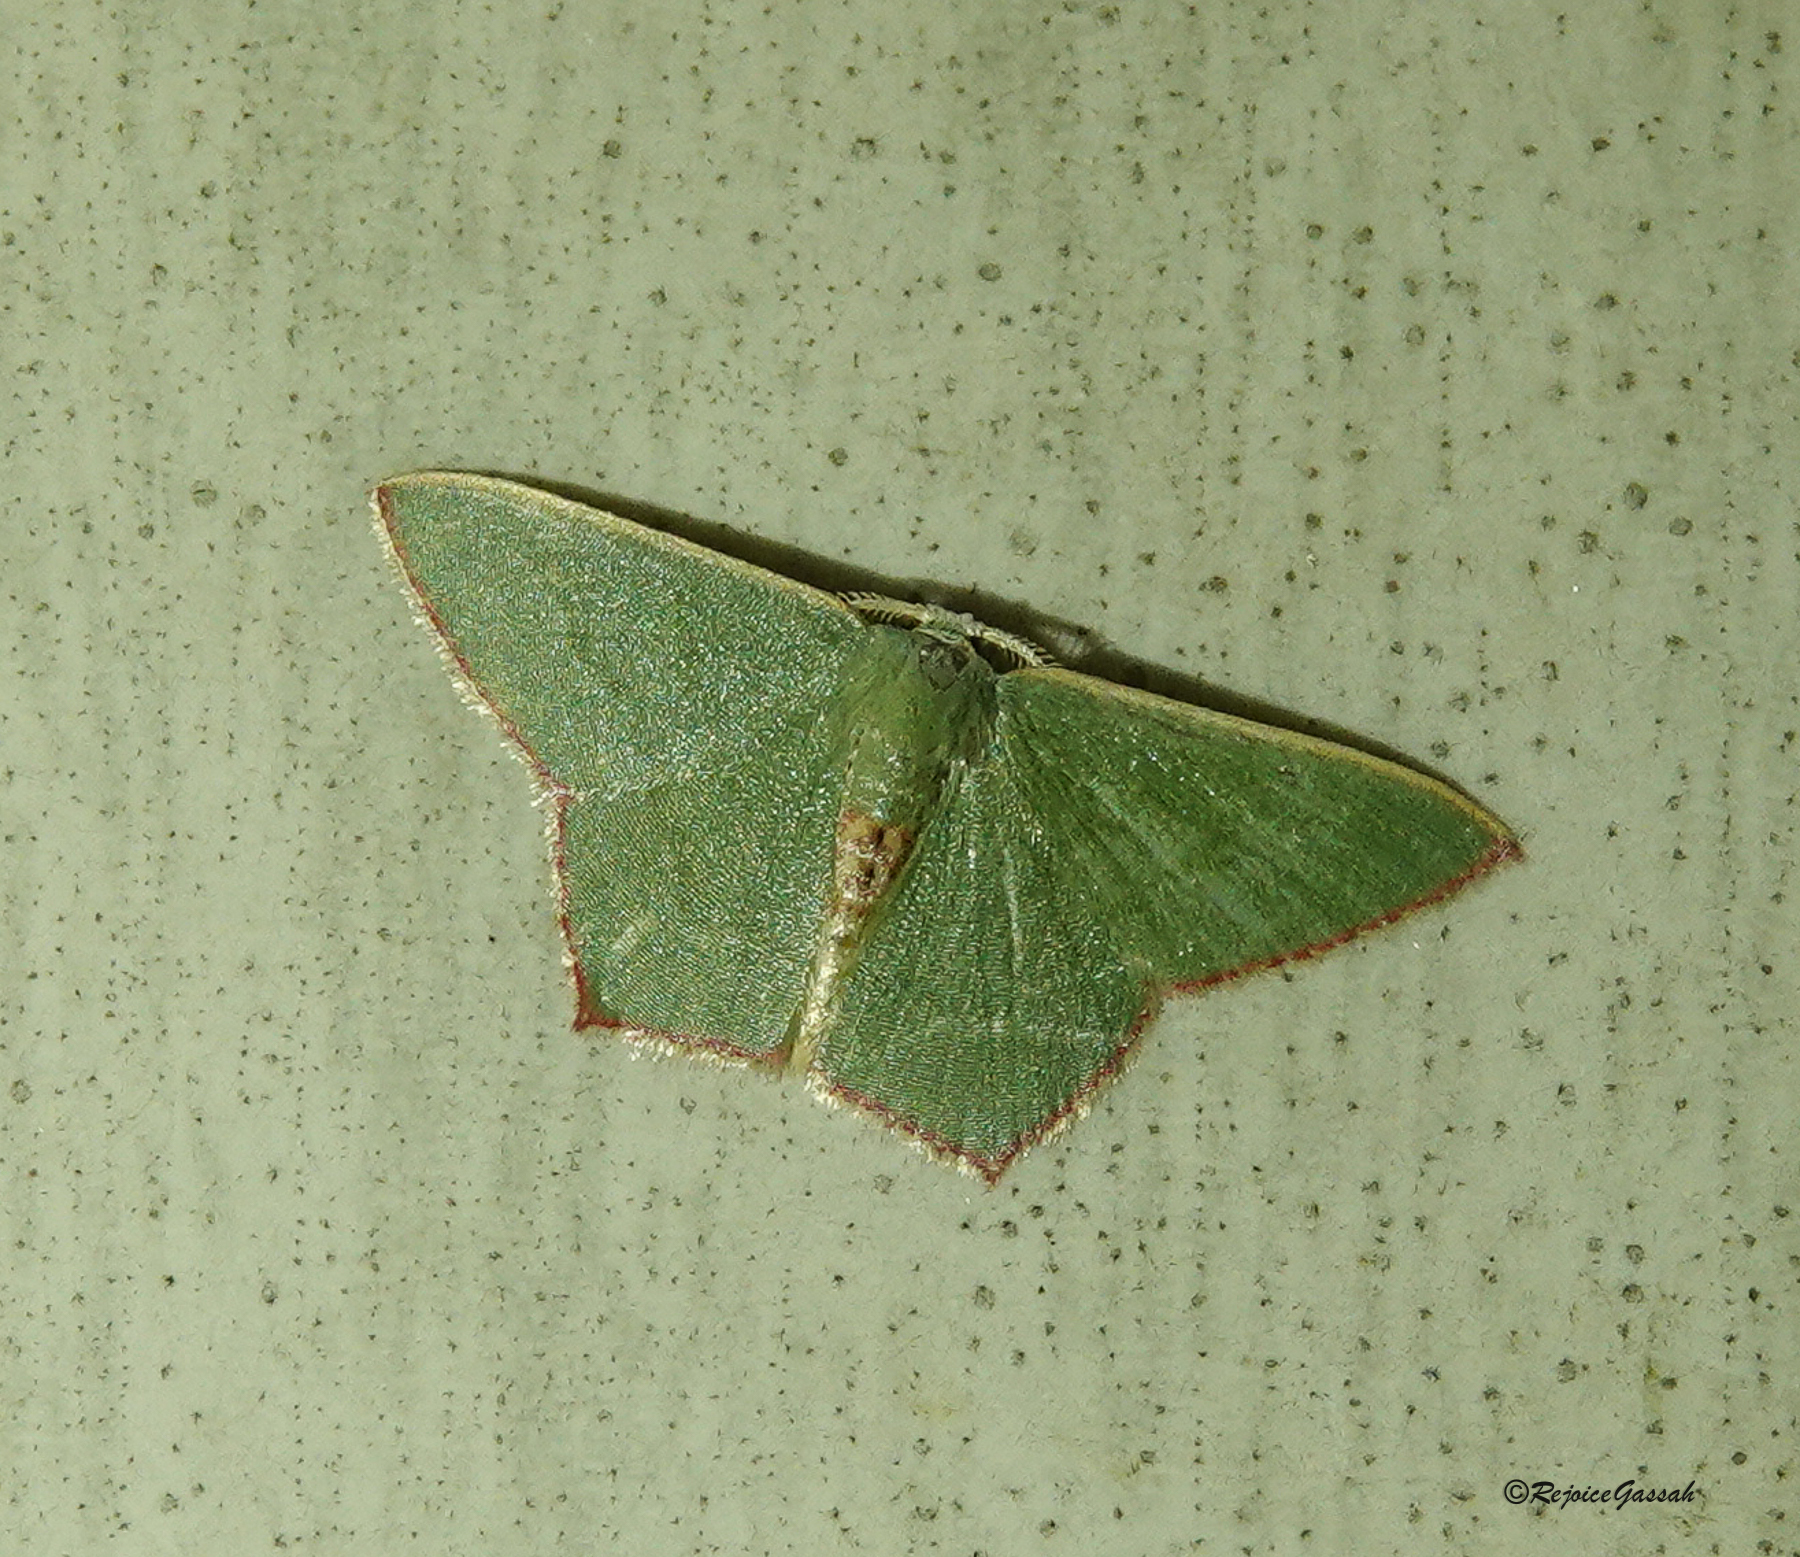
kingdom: Animalia
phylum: Arthropoda
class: Insecta
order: Lepidoptera
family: Geometridae
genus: Pamphlebia
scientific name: Pamphlebia rubrolimbraria
